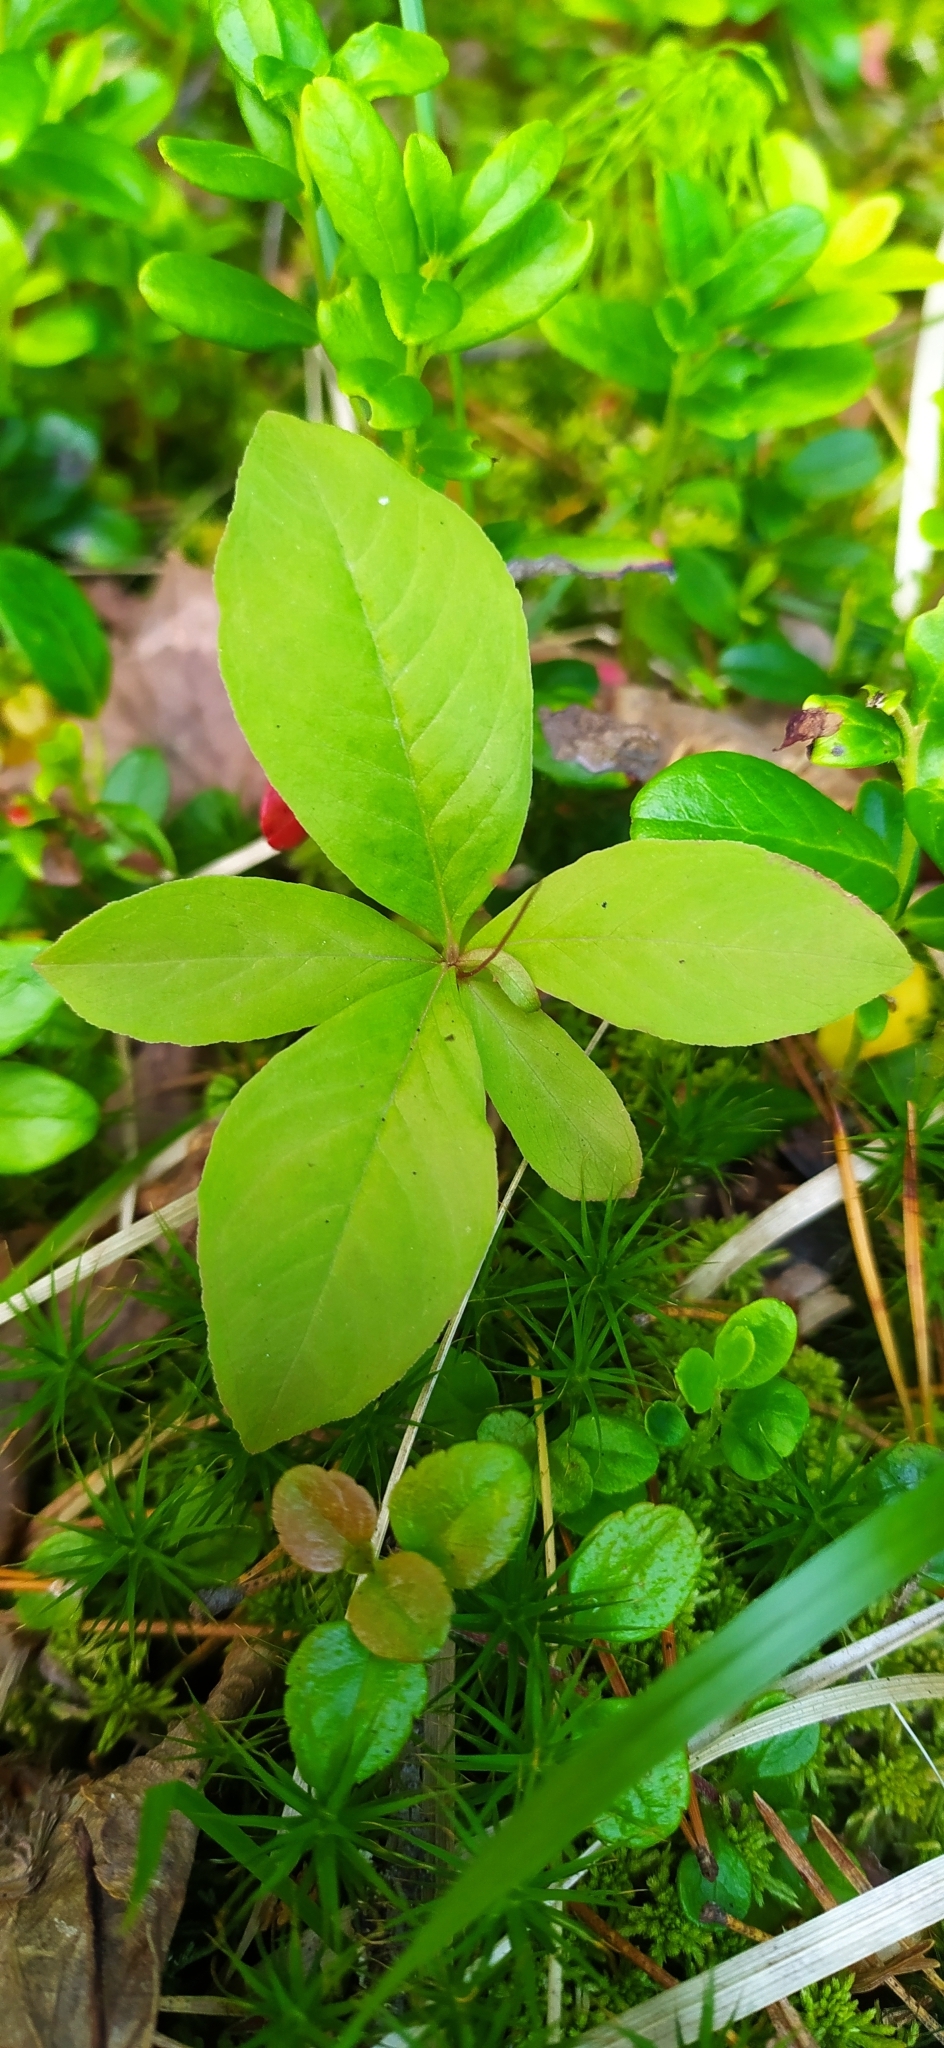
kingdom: Plantae
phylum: Tracheophyta
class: Magnoliopsida
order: Ericales
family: Primulaceae
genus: Lysimachia
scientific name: Lysimachia europaea
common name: Arctic starflower
